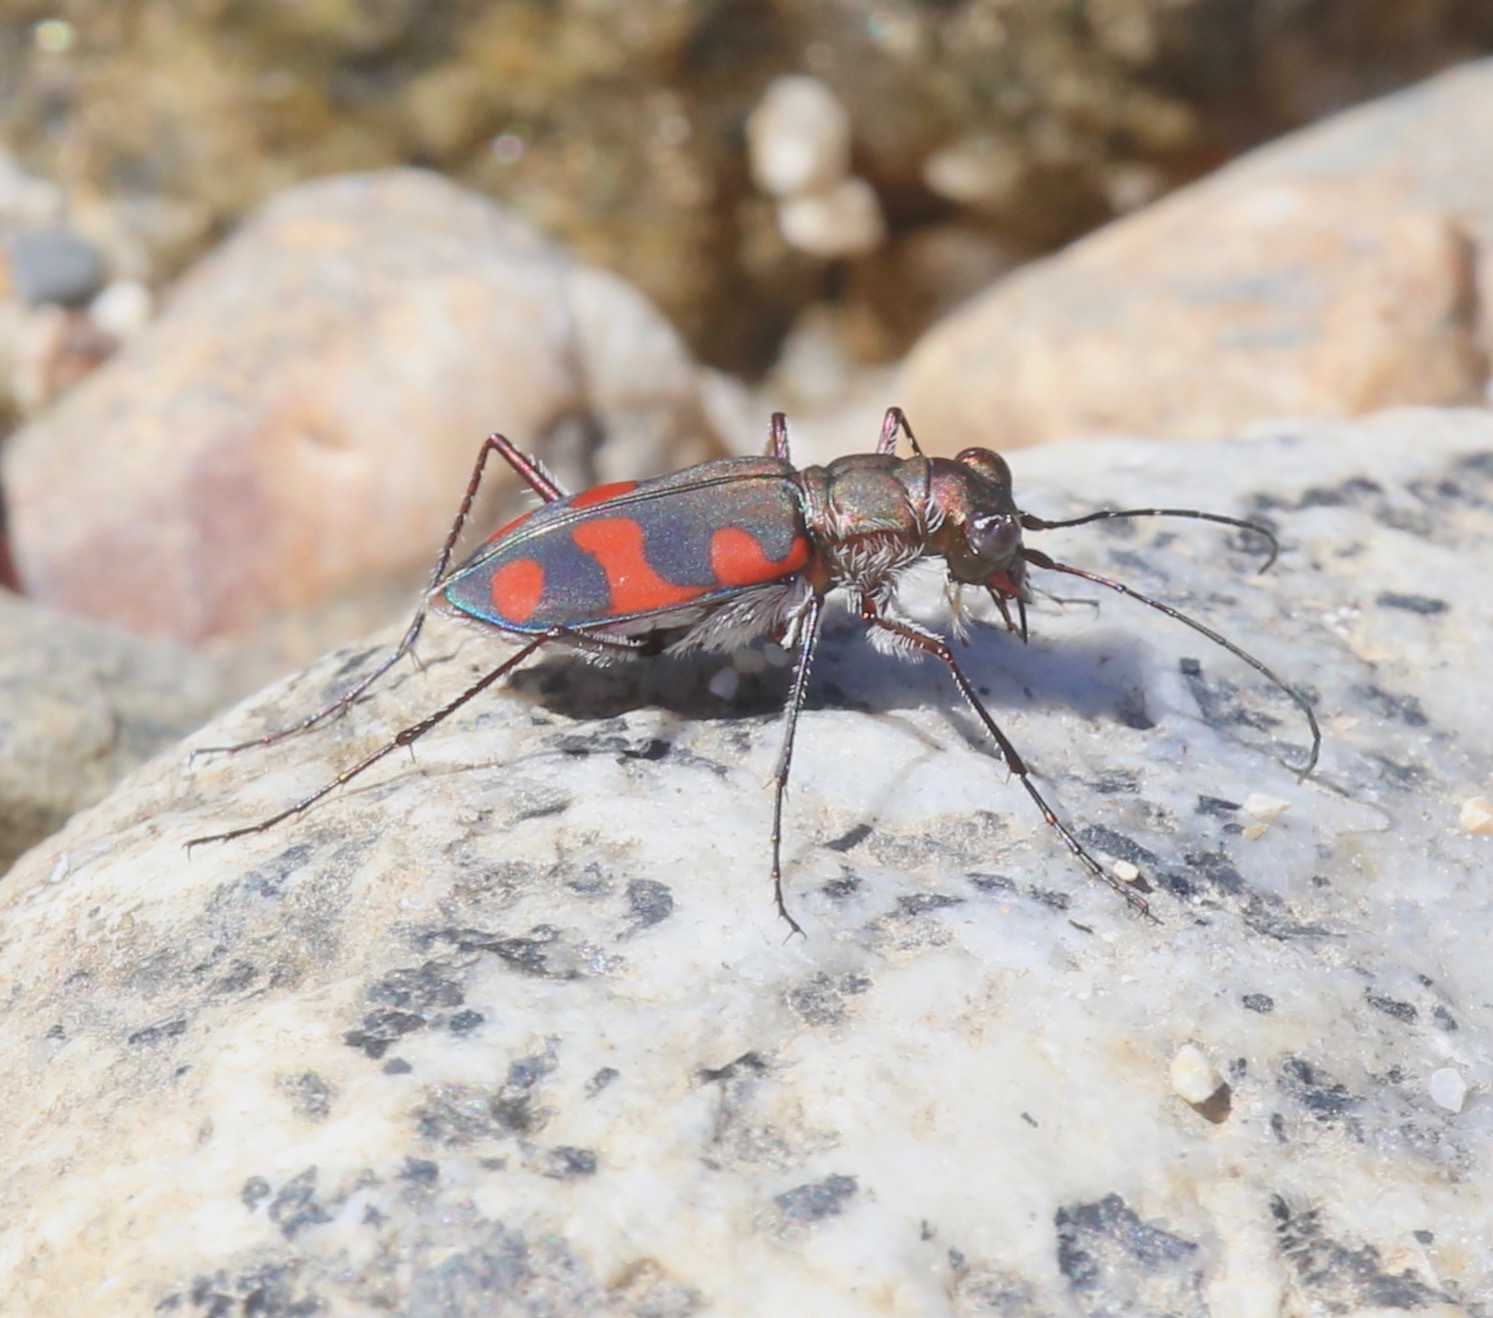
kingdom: Animalia
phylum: Arthropoda
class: Insecta
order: Coleoptera
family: Carabidae
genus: Cicindela
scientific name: Cicindela sommeri
